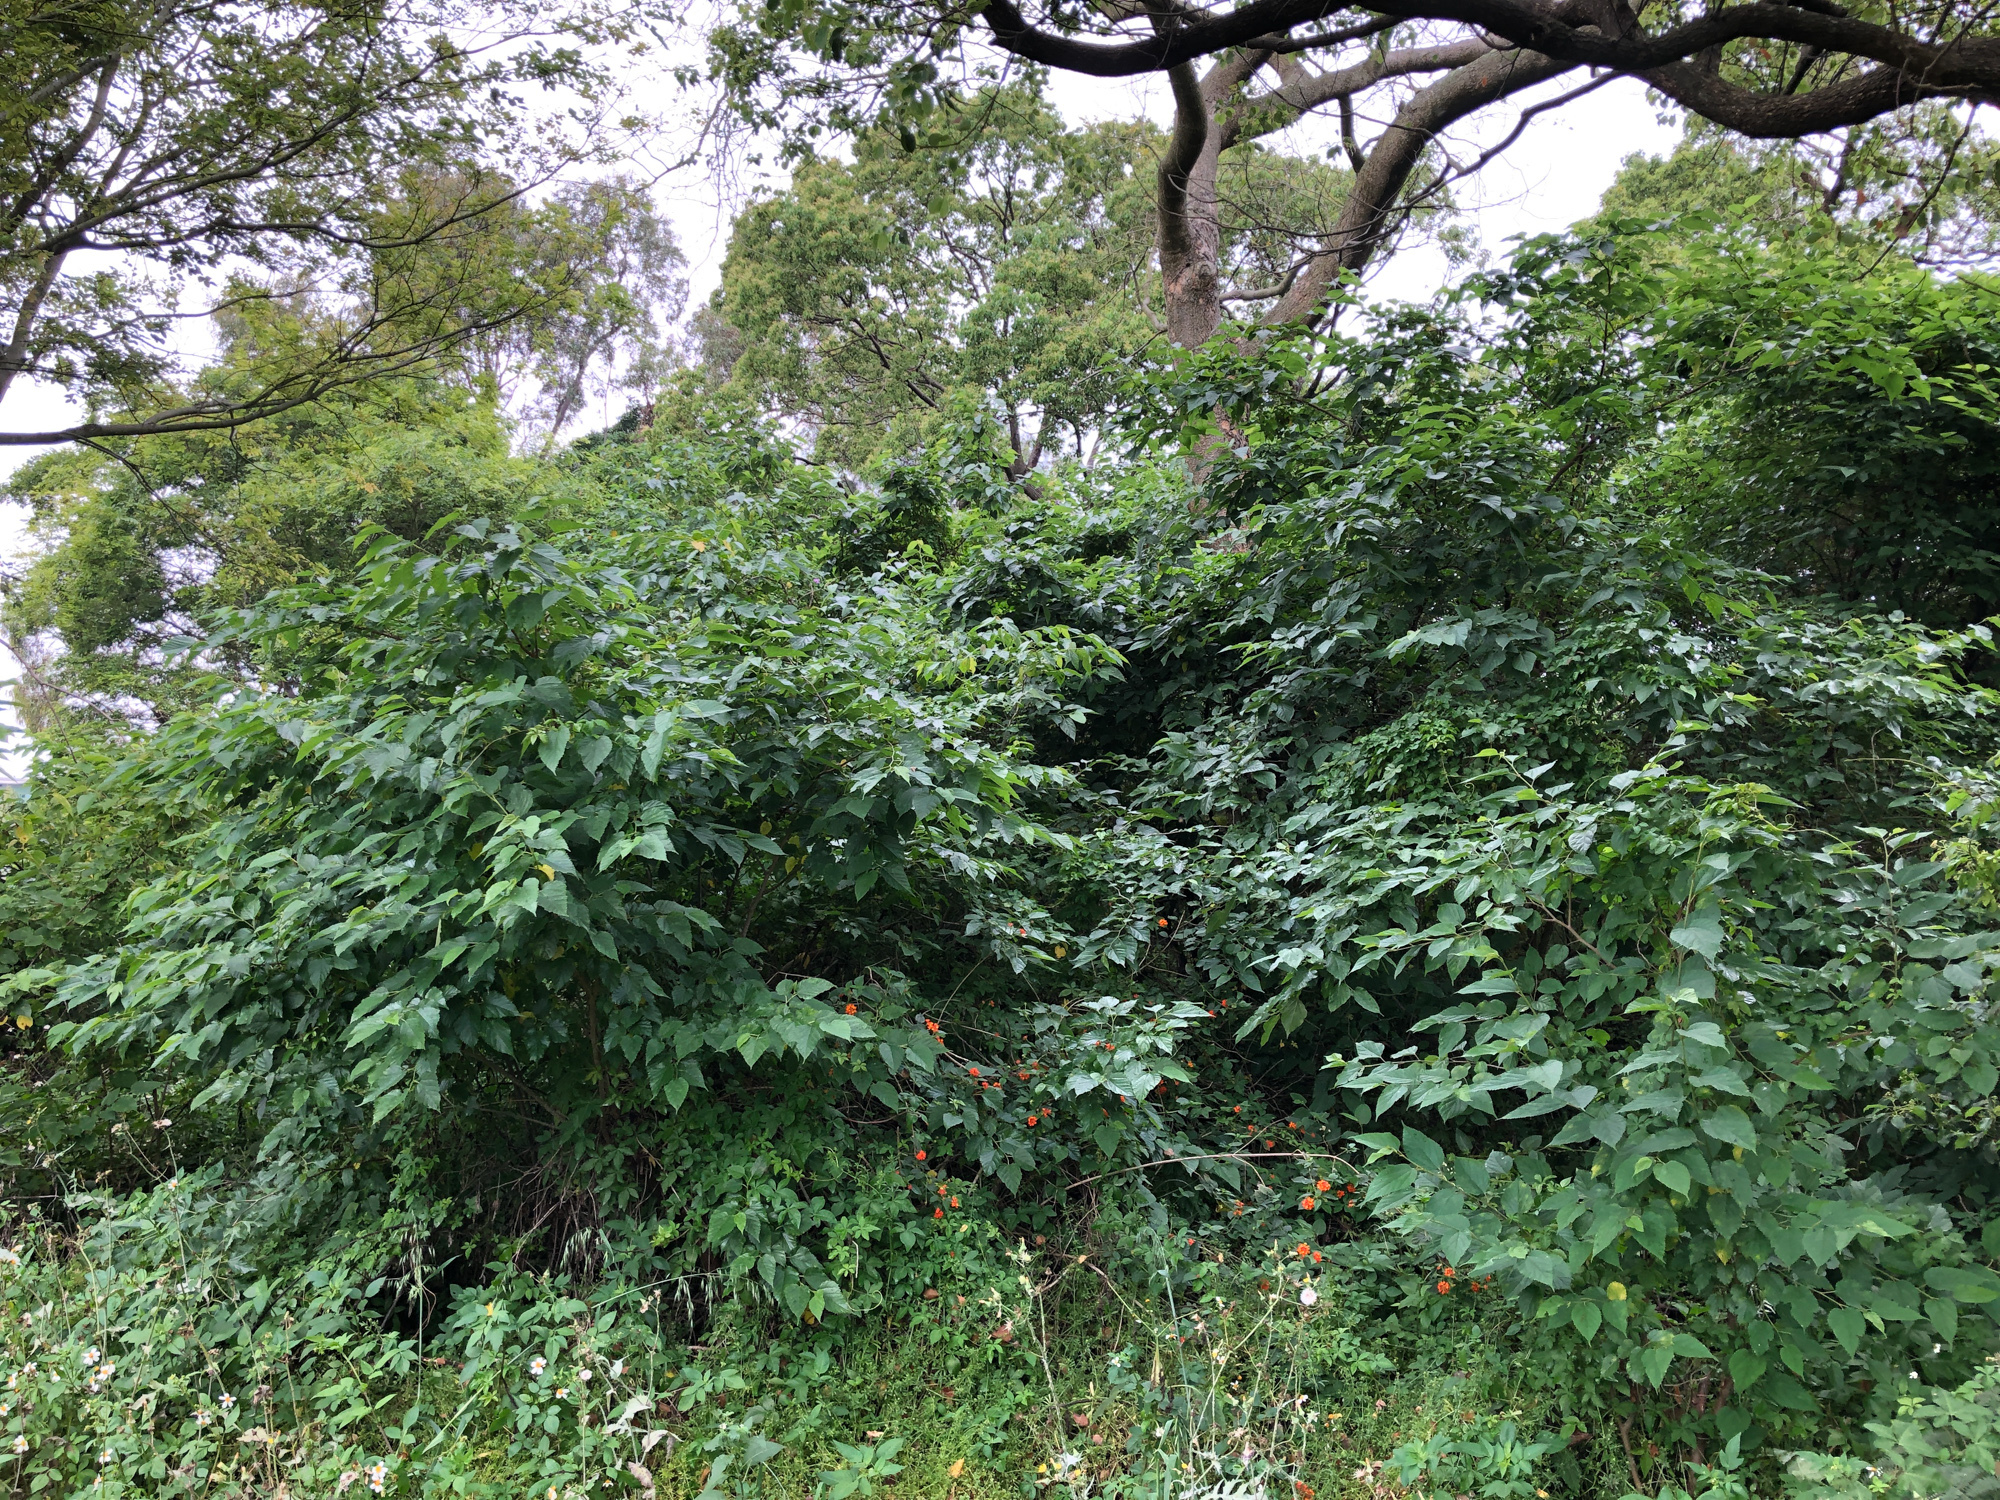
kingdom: Plantae
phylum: Tracheophyta
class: Magnoliopsida
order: Rosales
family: Moraceae
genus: Morus
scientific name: Morus indica
